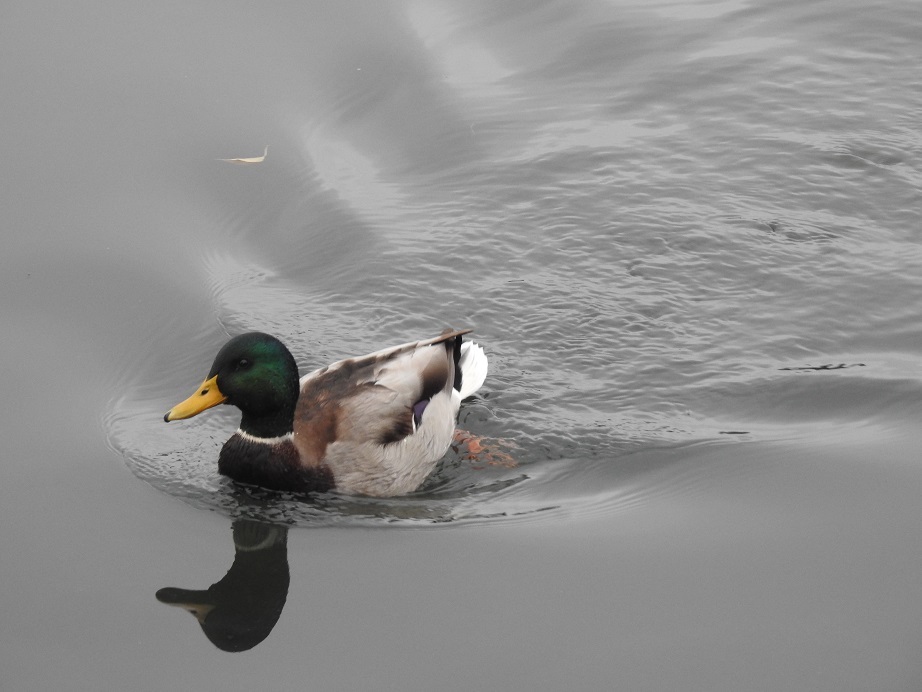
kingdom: Animalia
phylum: Chordata
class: Aves
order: Anseriformes
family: Anatidae
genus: Anas
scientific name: Anas platyrhynchos
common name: Mallard
